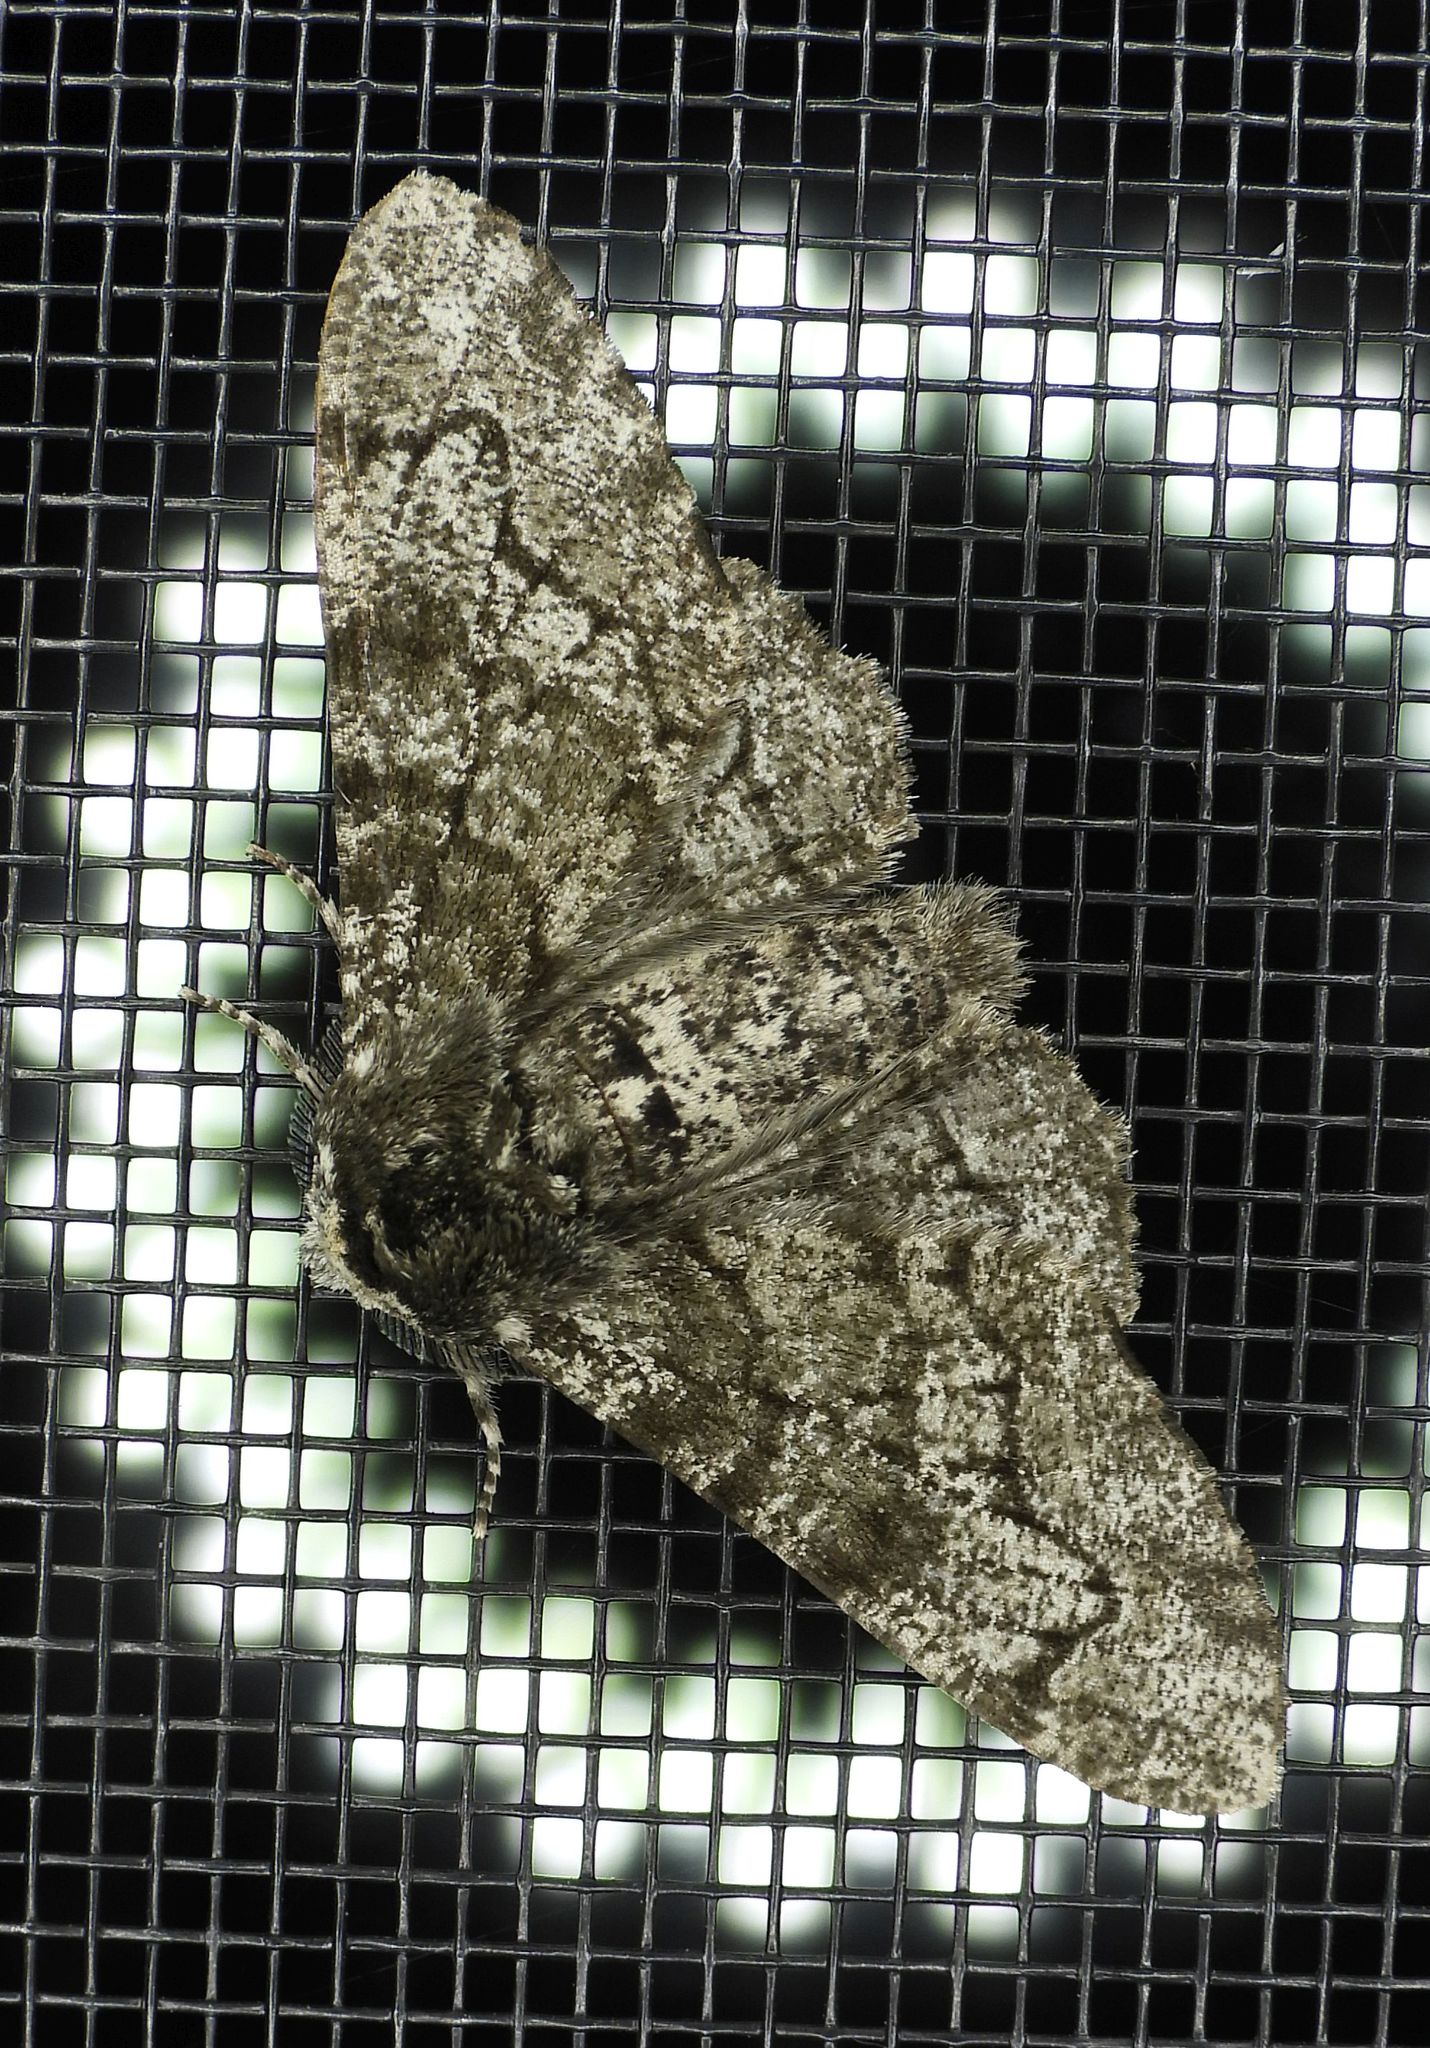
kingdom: Animalia
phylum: Arthropoda
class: Insecta
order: Lepidoptera
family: Geometridae
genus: Biston
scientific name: Biston betularia
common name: Peppered moth
